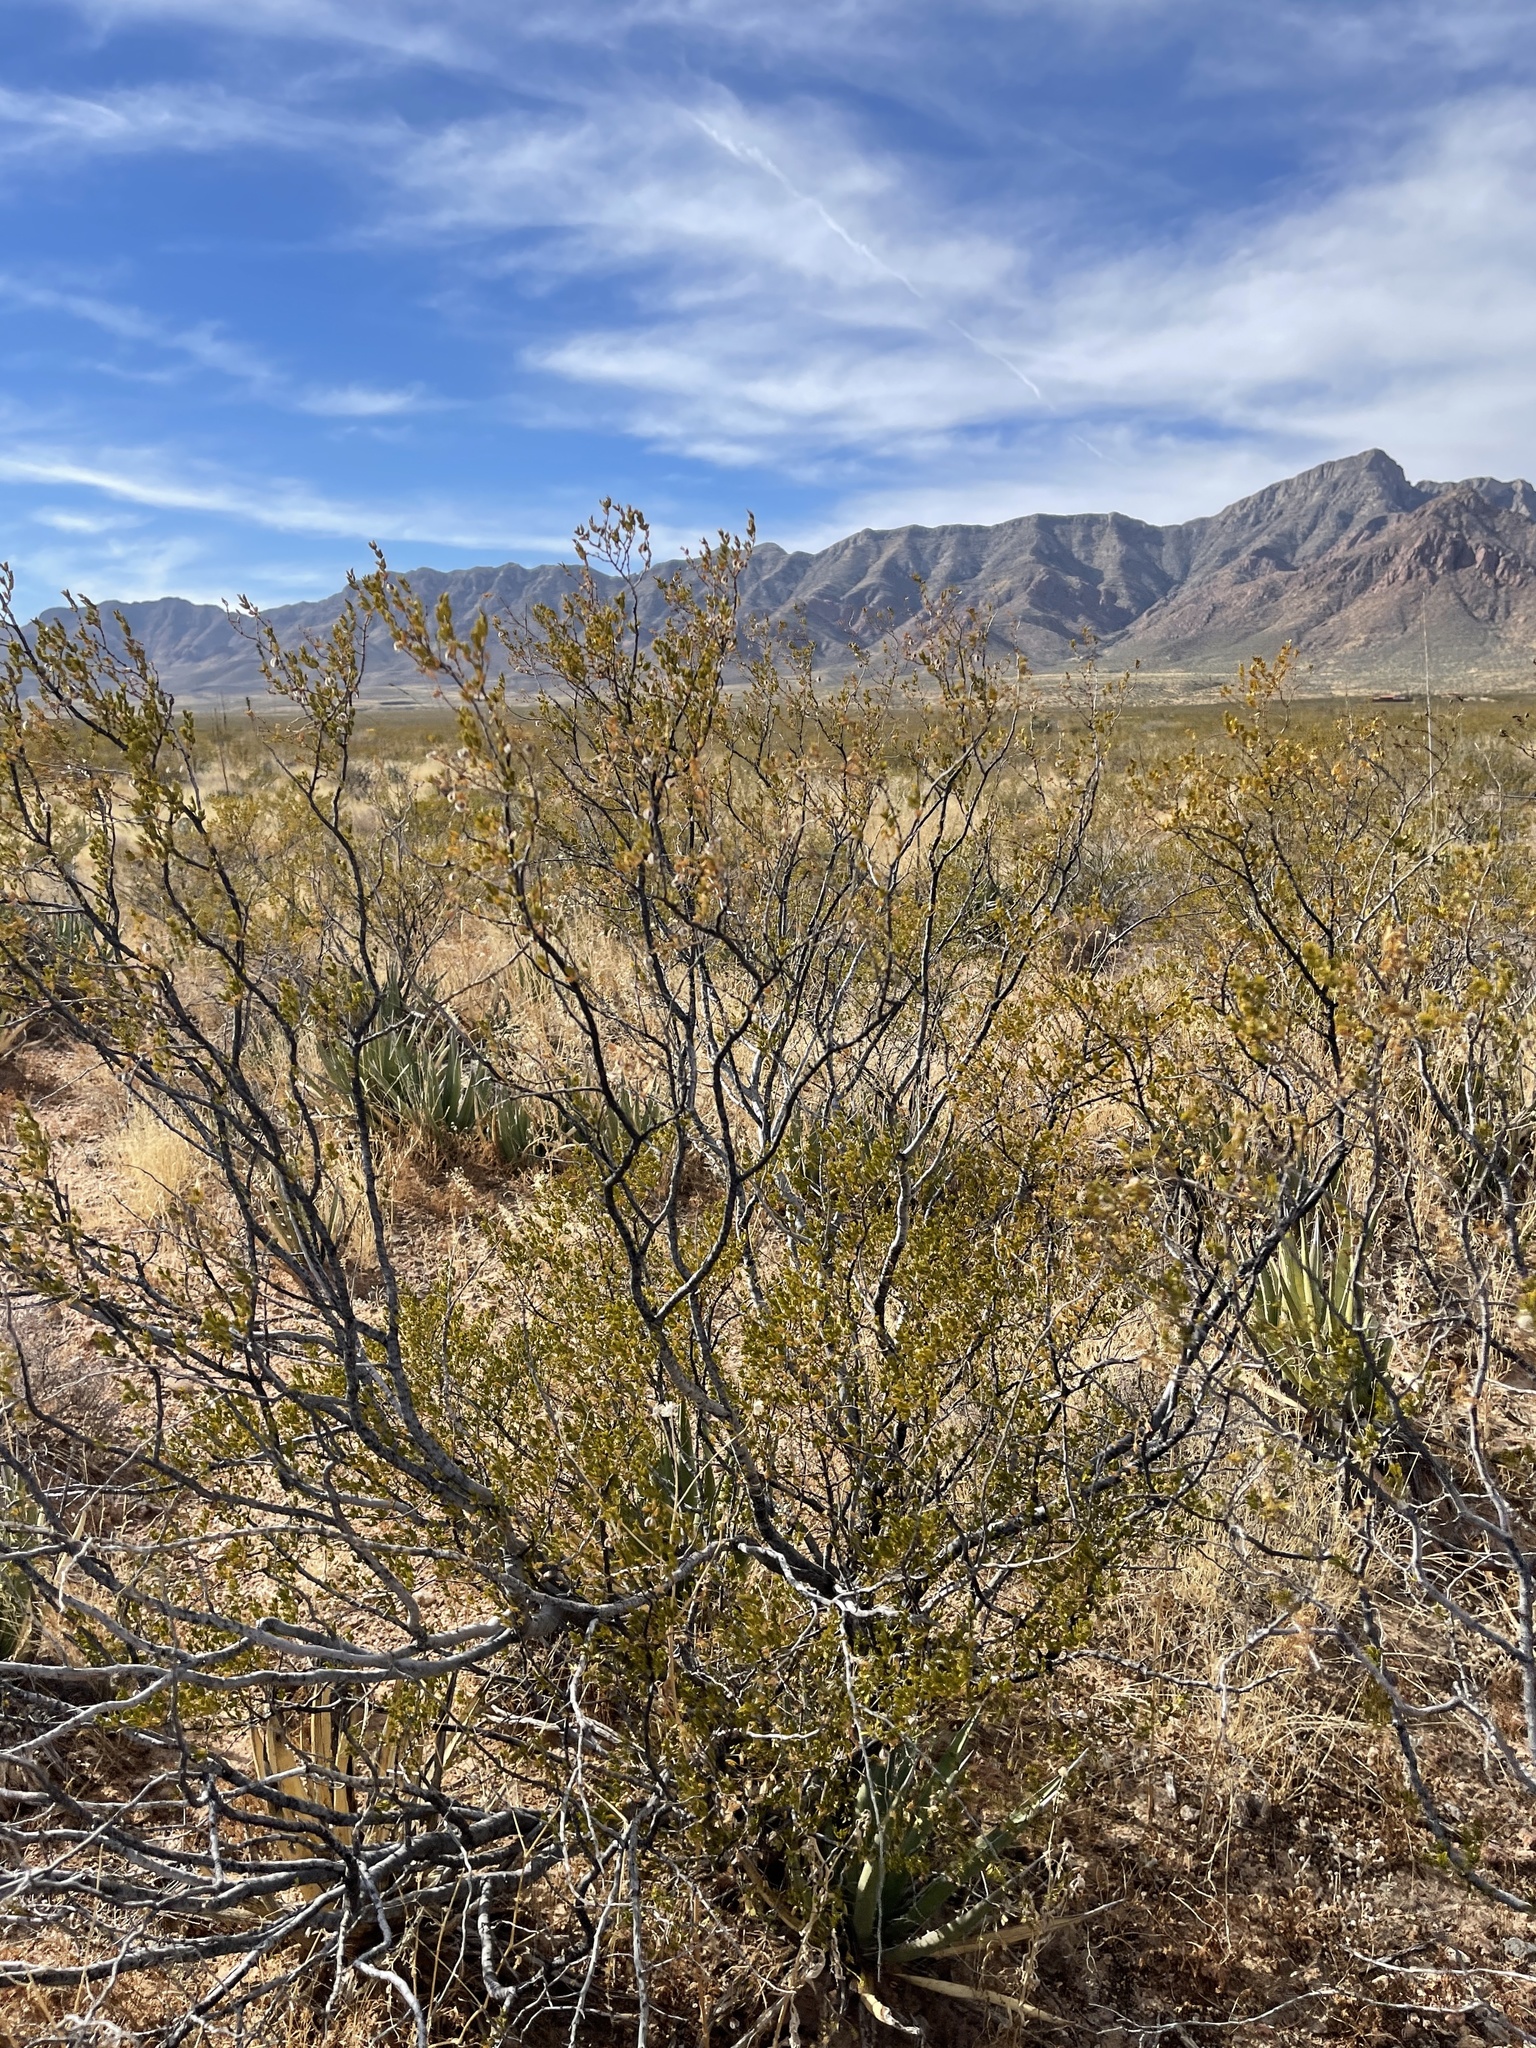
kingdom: Plantae
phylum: Tracheophyta
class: Magnoliopsida
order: Zygophyllales
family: Zygophyllaceae
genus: Larrea
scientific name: Larrea tridentata
